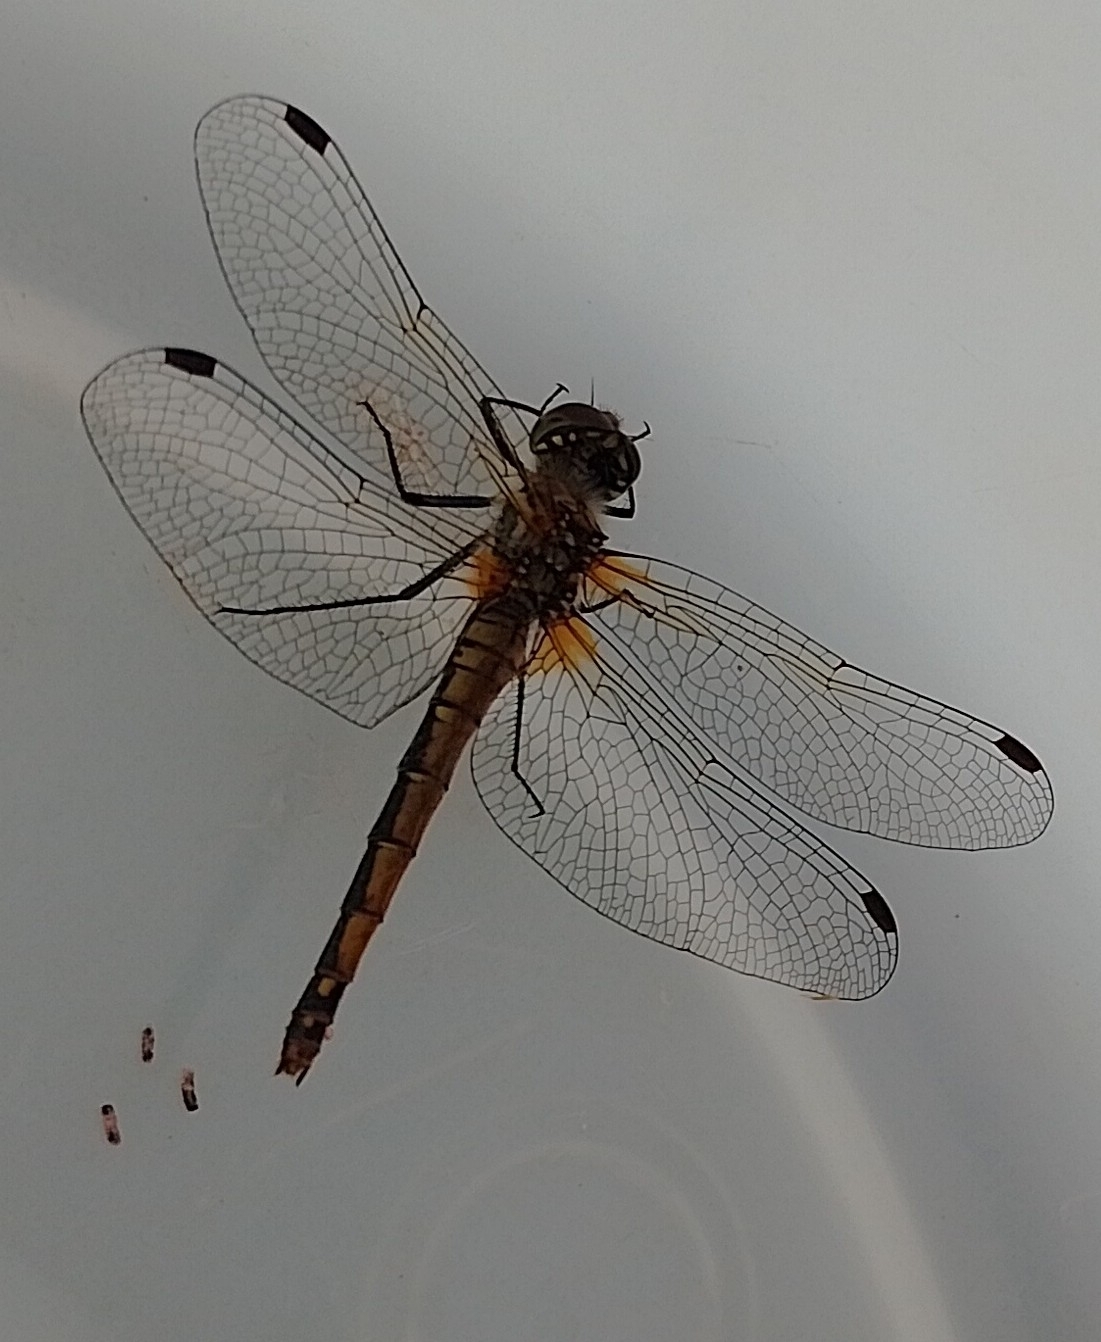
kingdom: Animalia
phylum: Arthropoda
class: Insecta
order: Odonata
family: Libellulidae
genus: Sympetrum
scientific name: Sympetrum danae
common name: Black darter
